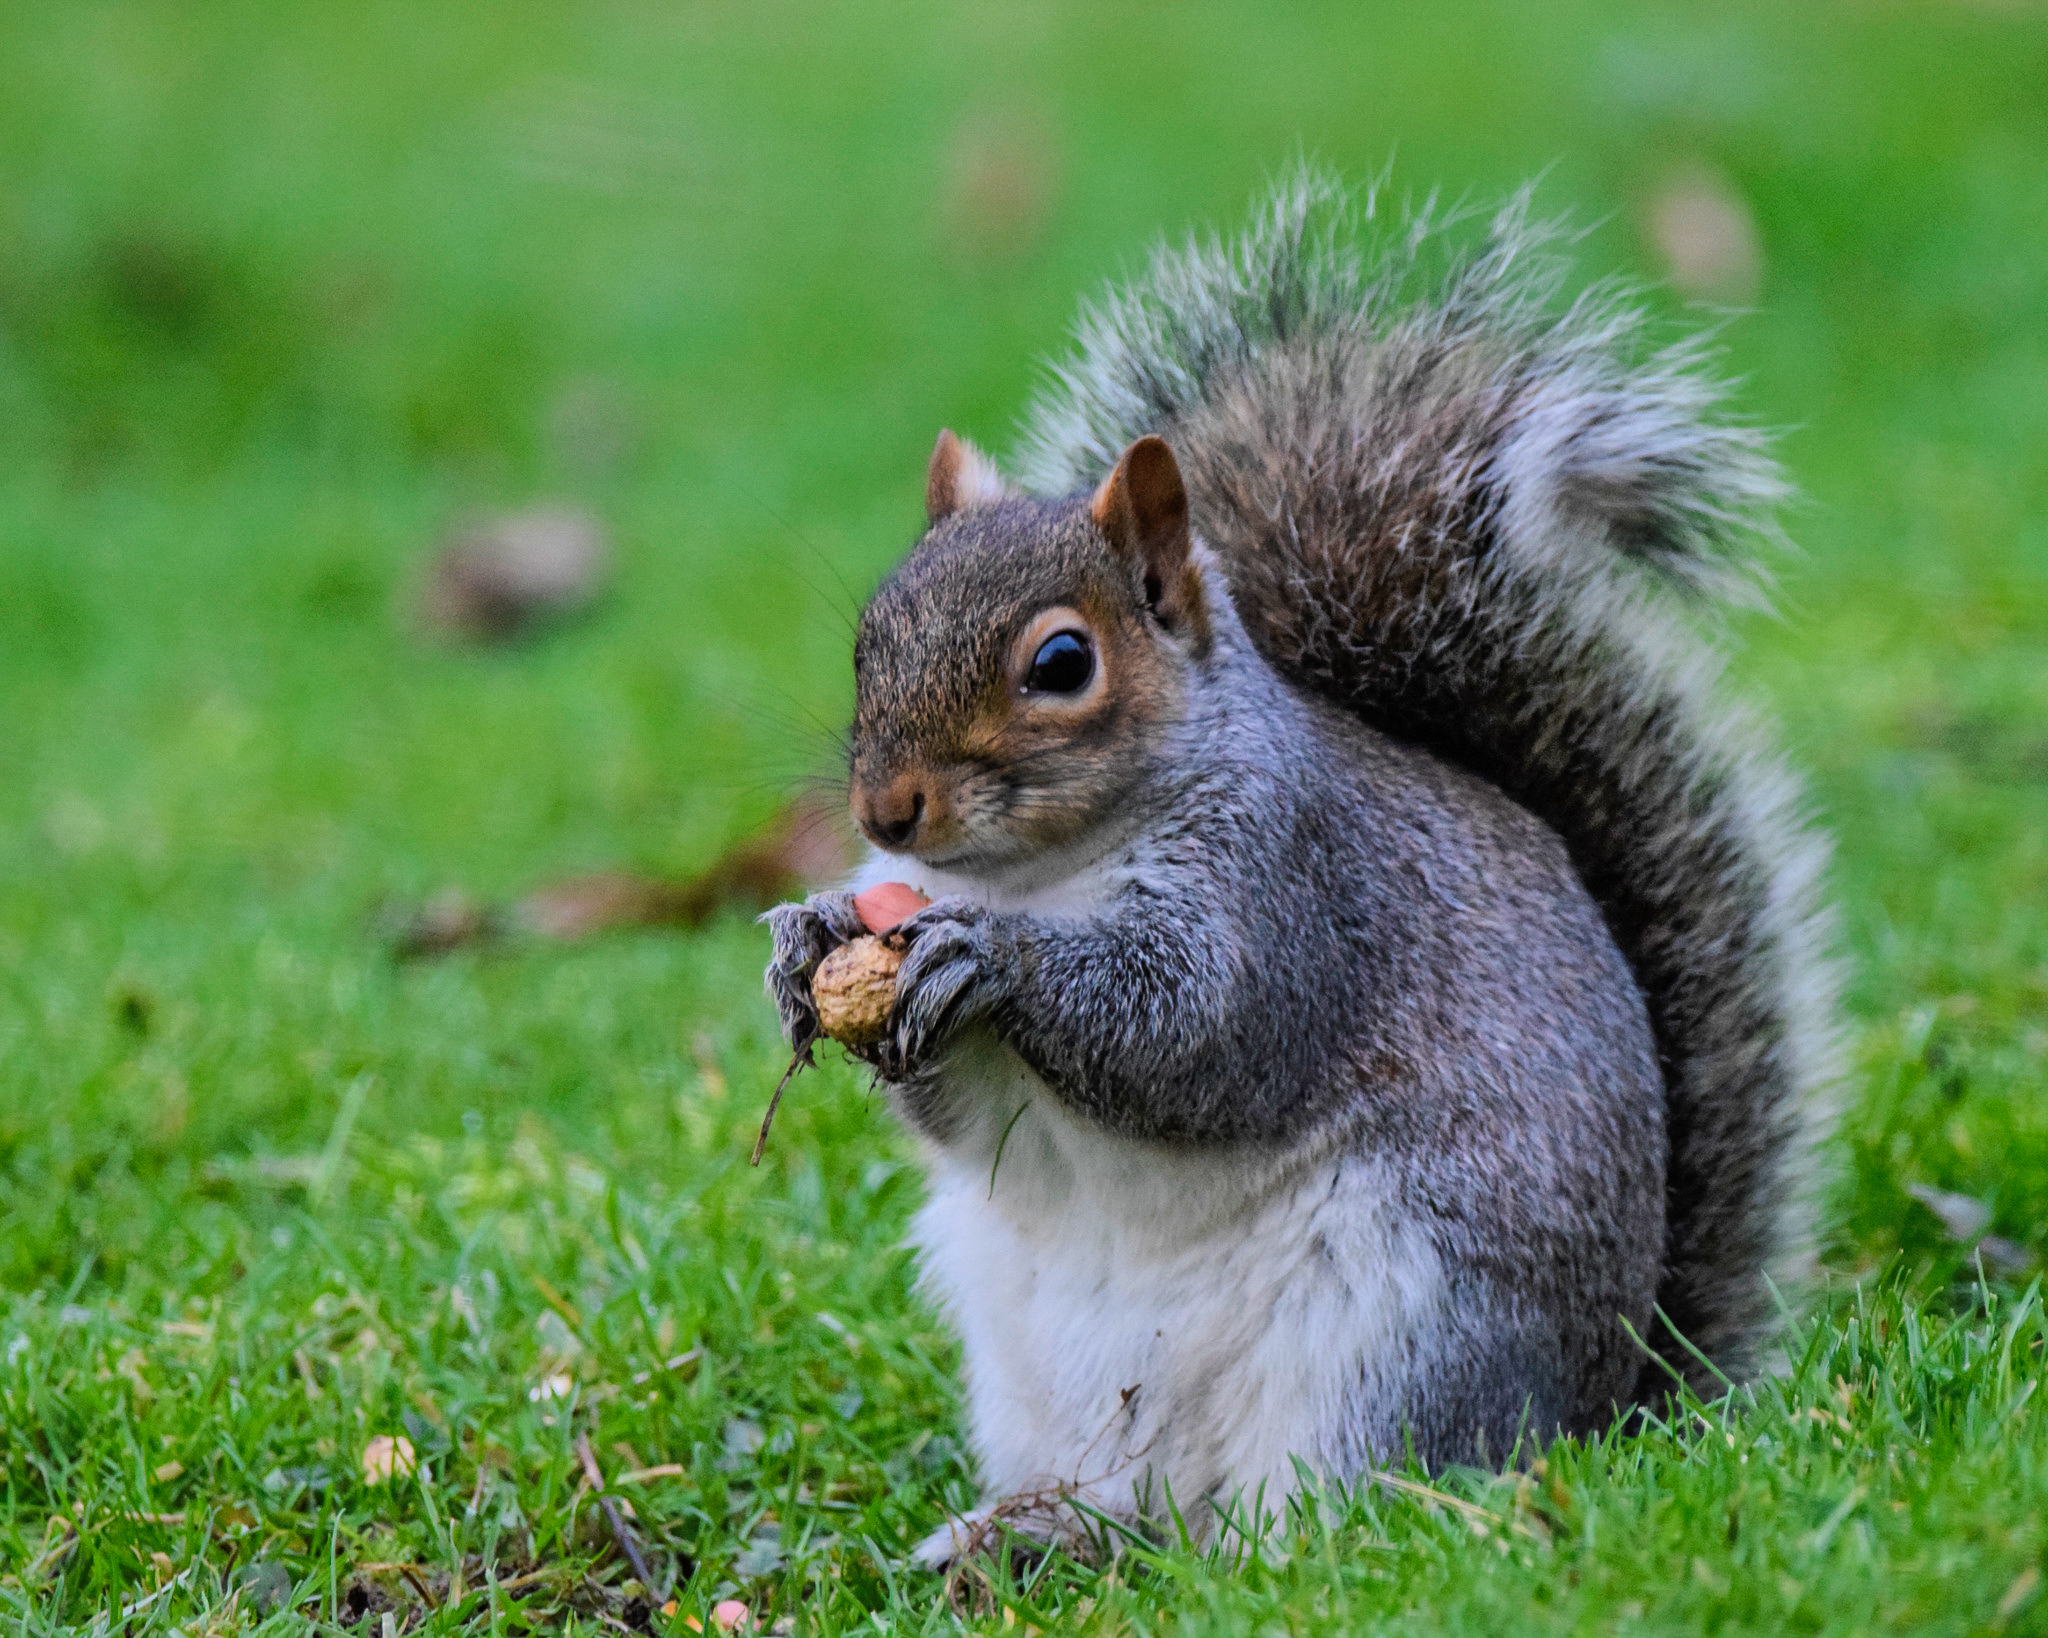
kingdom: Animalia
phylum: Chordata
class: Mammalia
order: Rodentia
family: Sciuridae
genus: Sciurus
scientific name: Sciurus carolinensis
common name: Eastern gray squirrel
